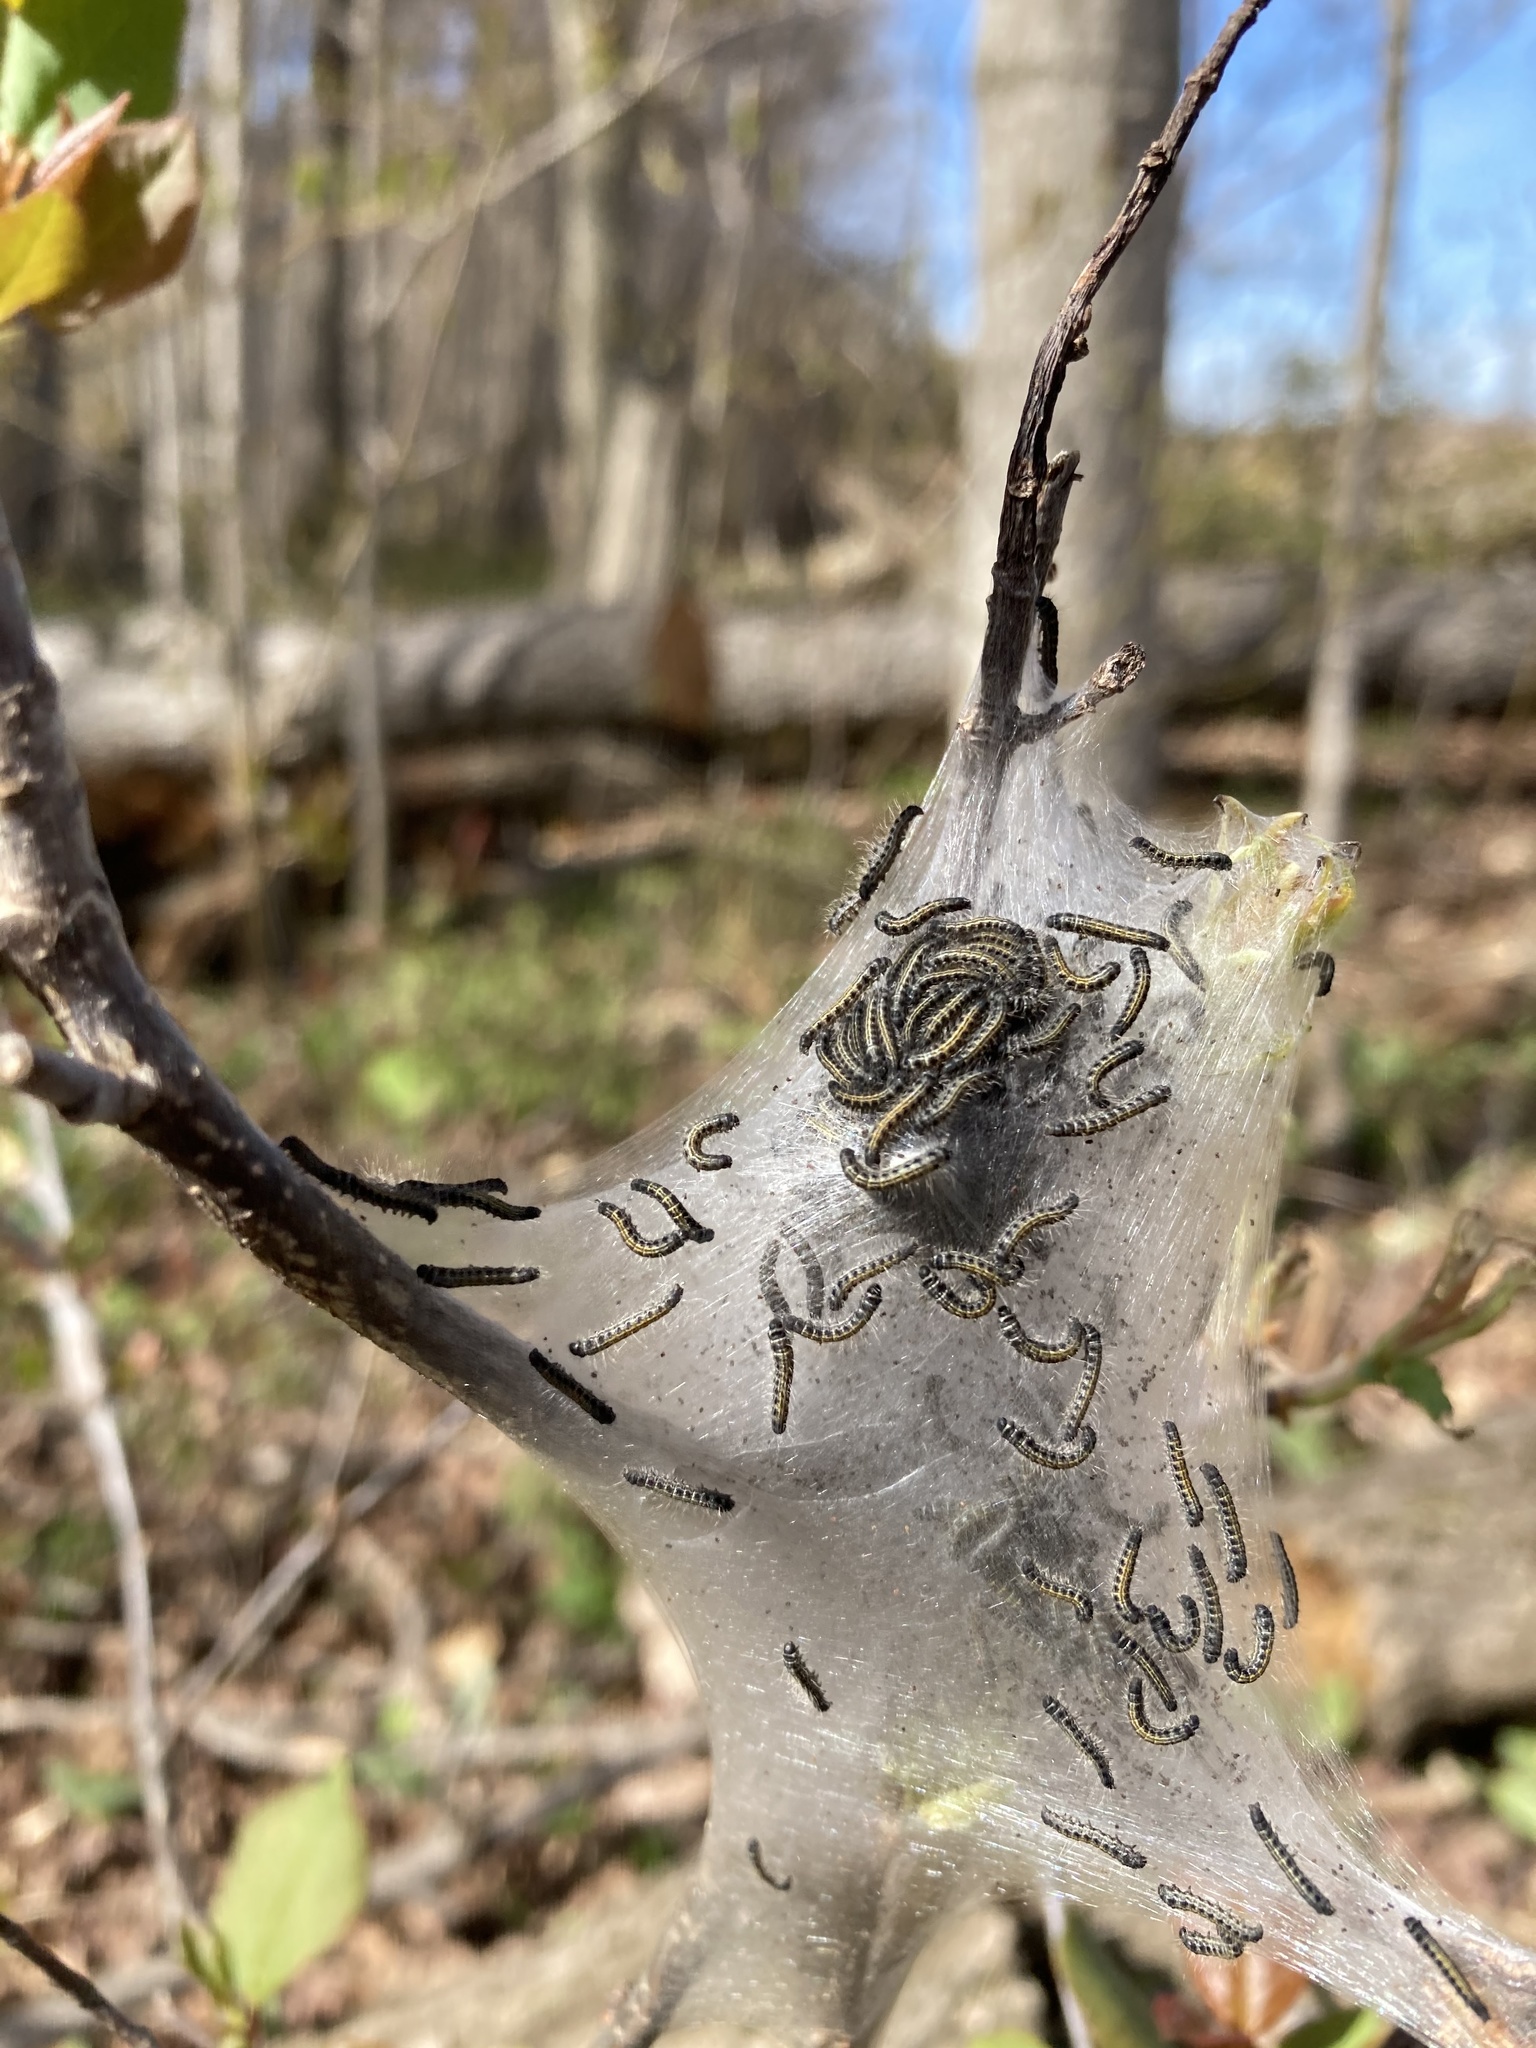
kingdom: Animalia
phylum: Arthropoda
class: Insecta
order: Lepidoptera
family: Lasiocampidae
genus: Malacosoma
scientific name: Malacosoma americana
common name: Eastern tent caterpillar moth
